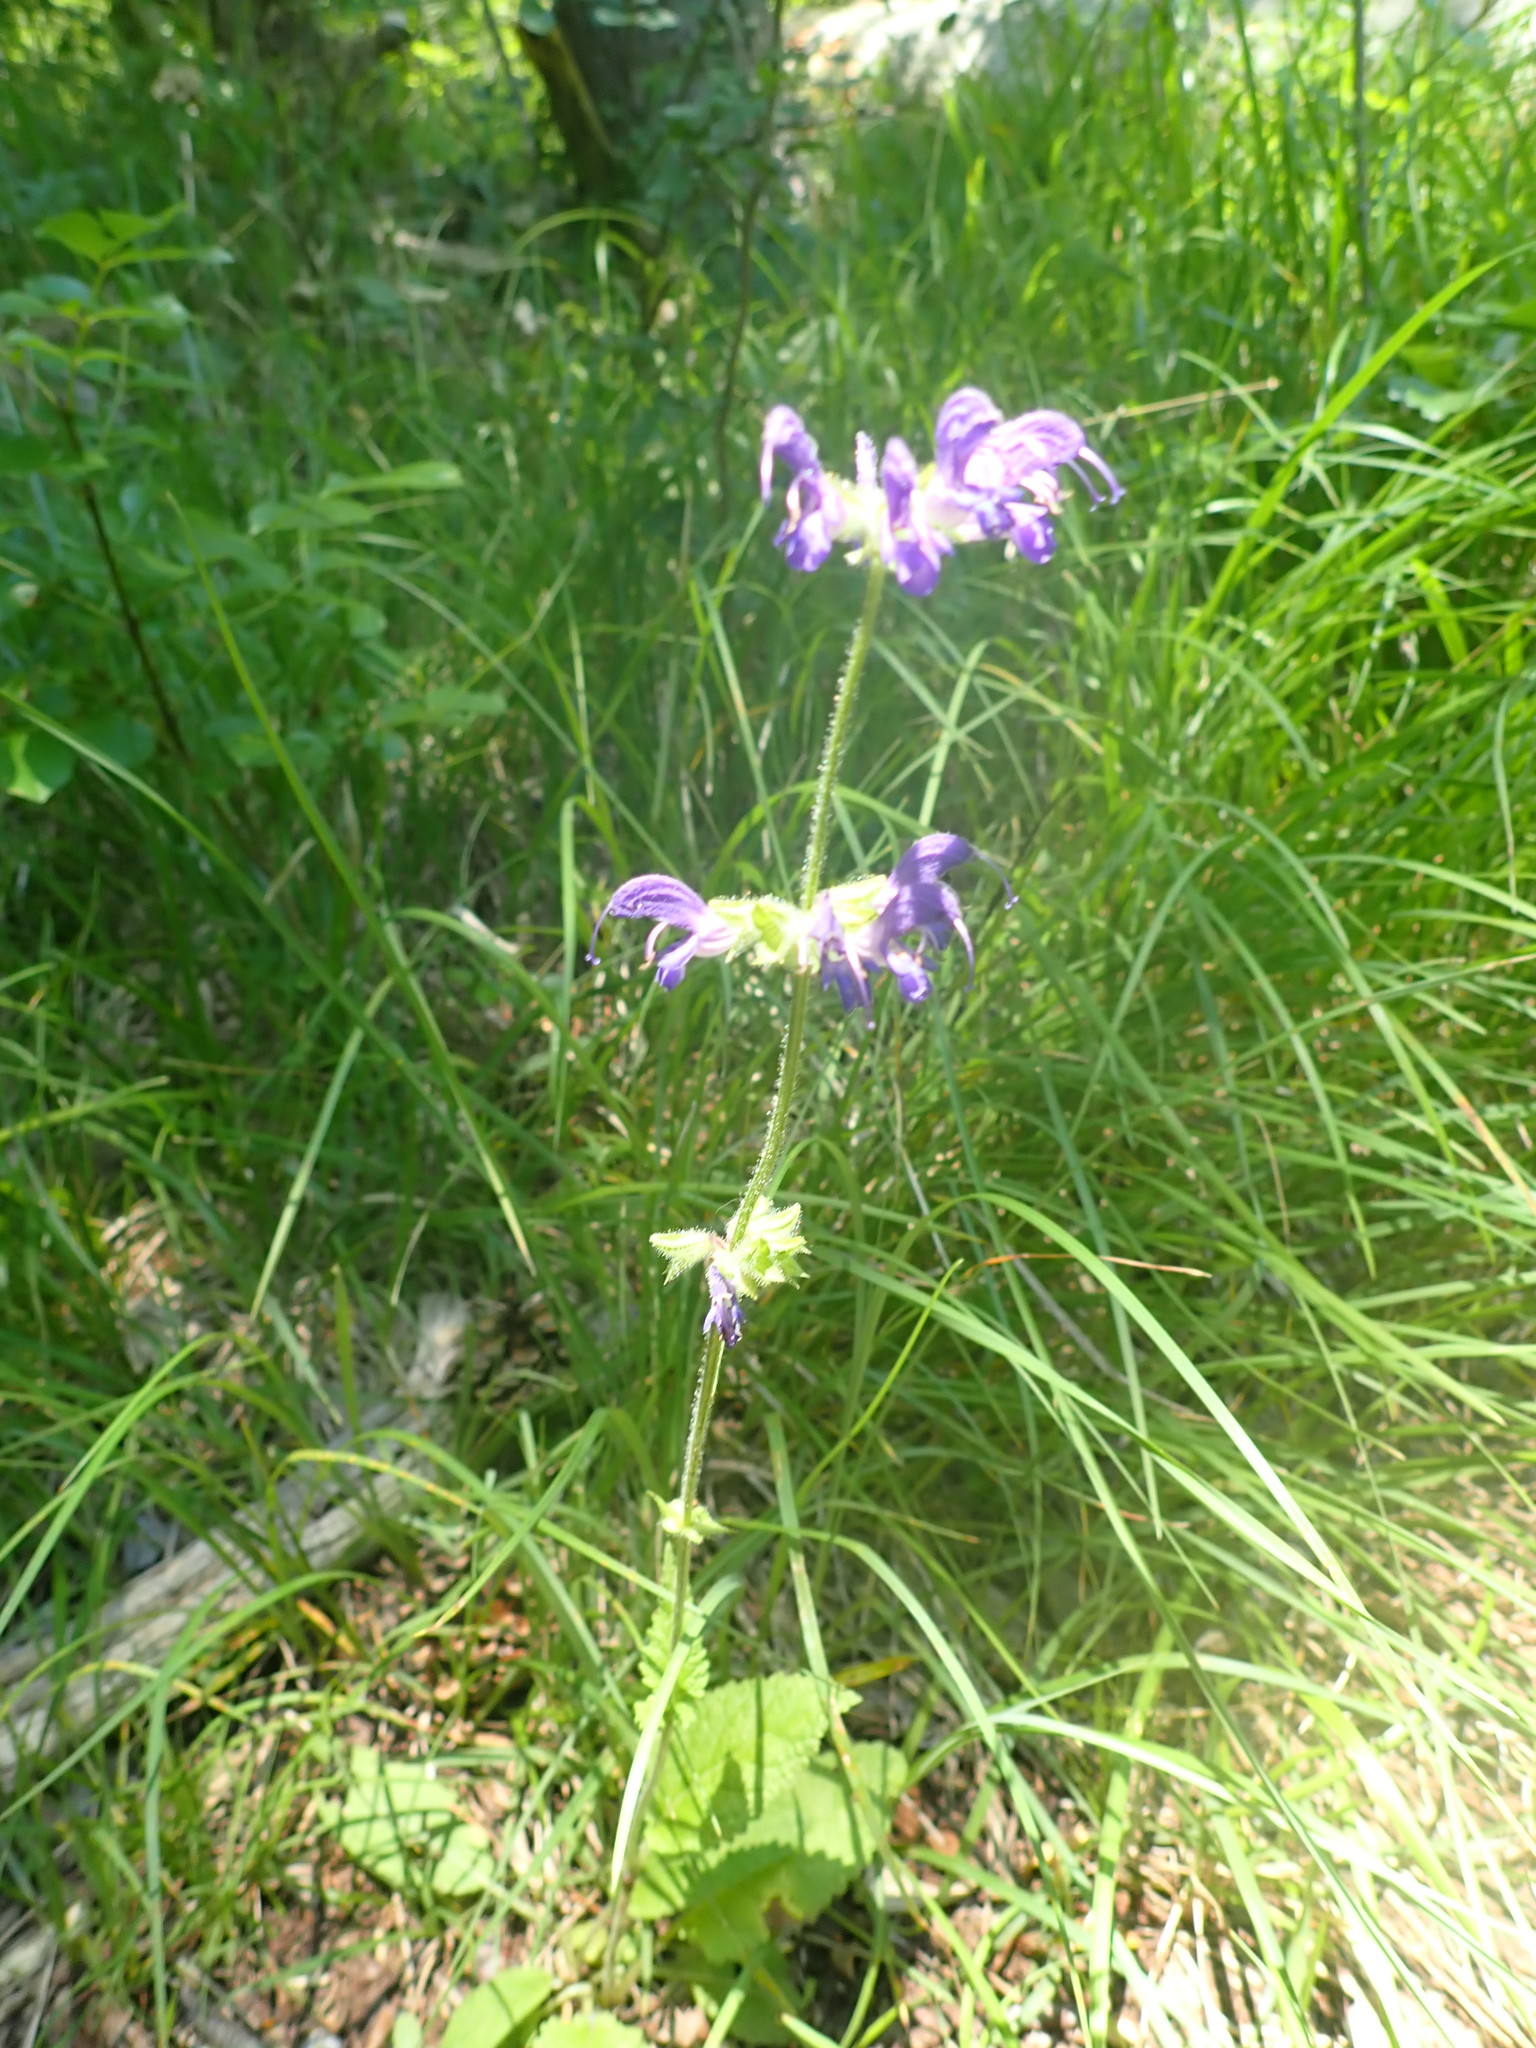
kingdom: Plantae
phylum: Tracheophyta
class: Magnoliopsida
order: Lamiales
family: Lamiaceae
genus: Salvia
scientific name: Salvia pratensis
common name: Meadow sage
